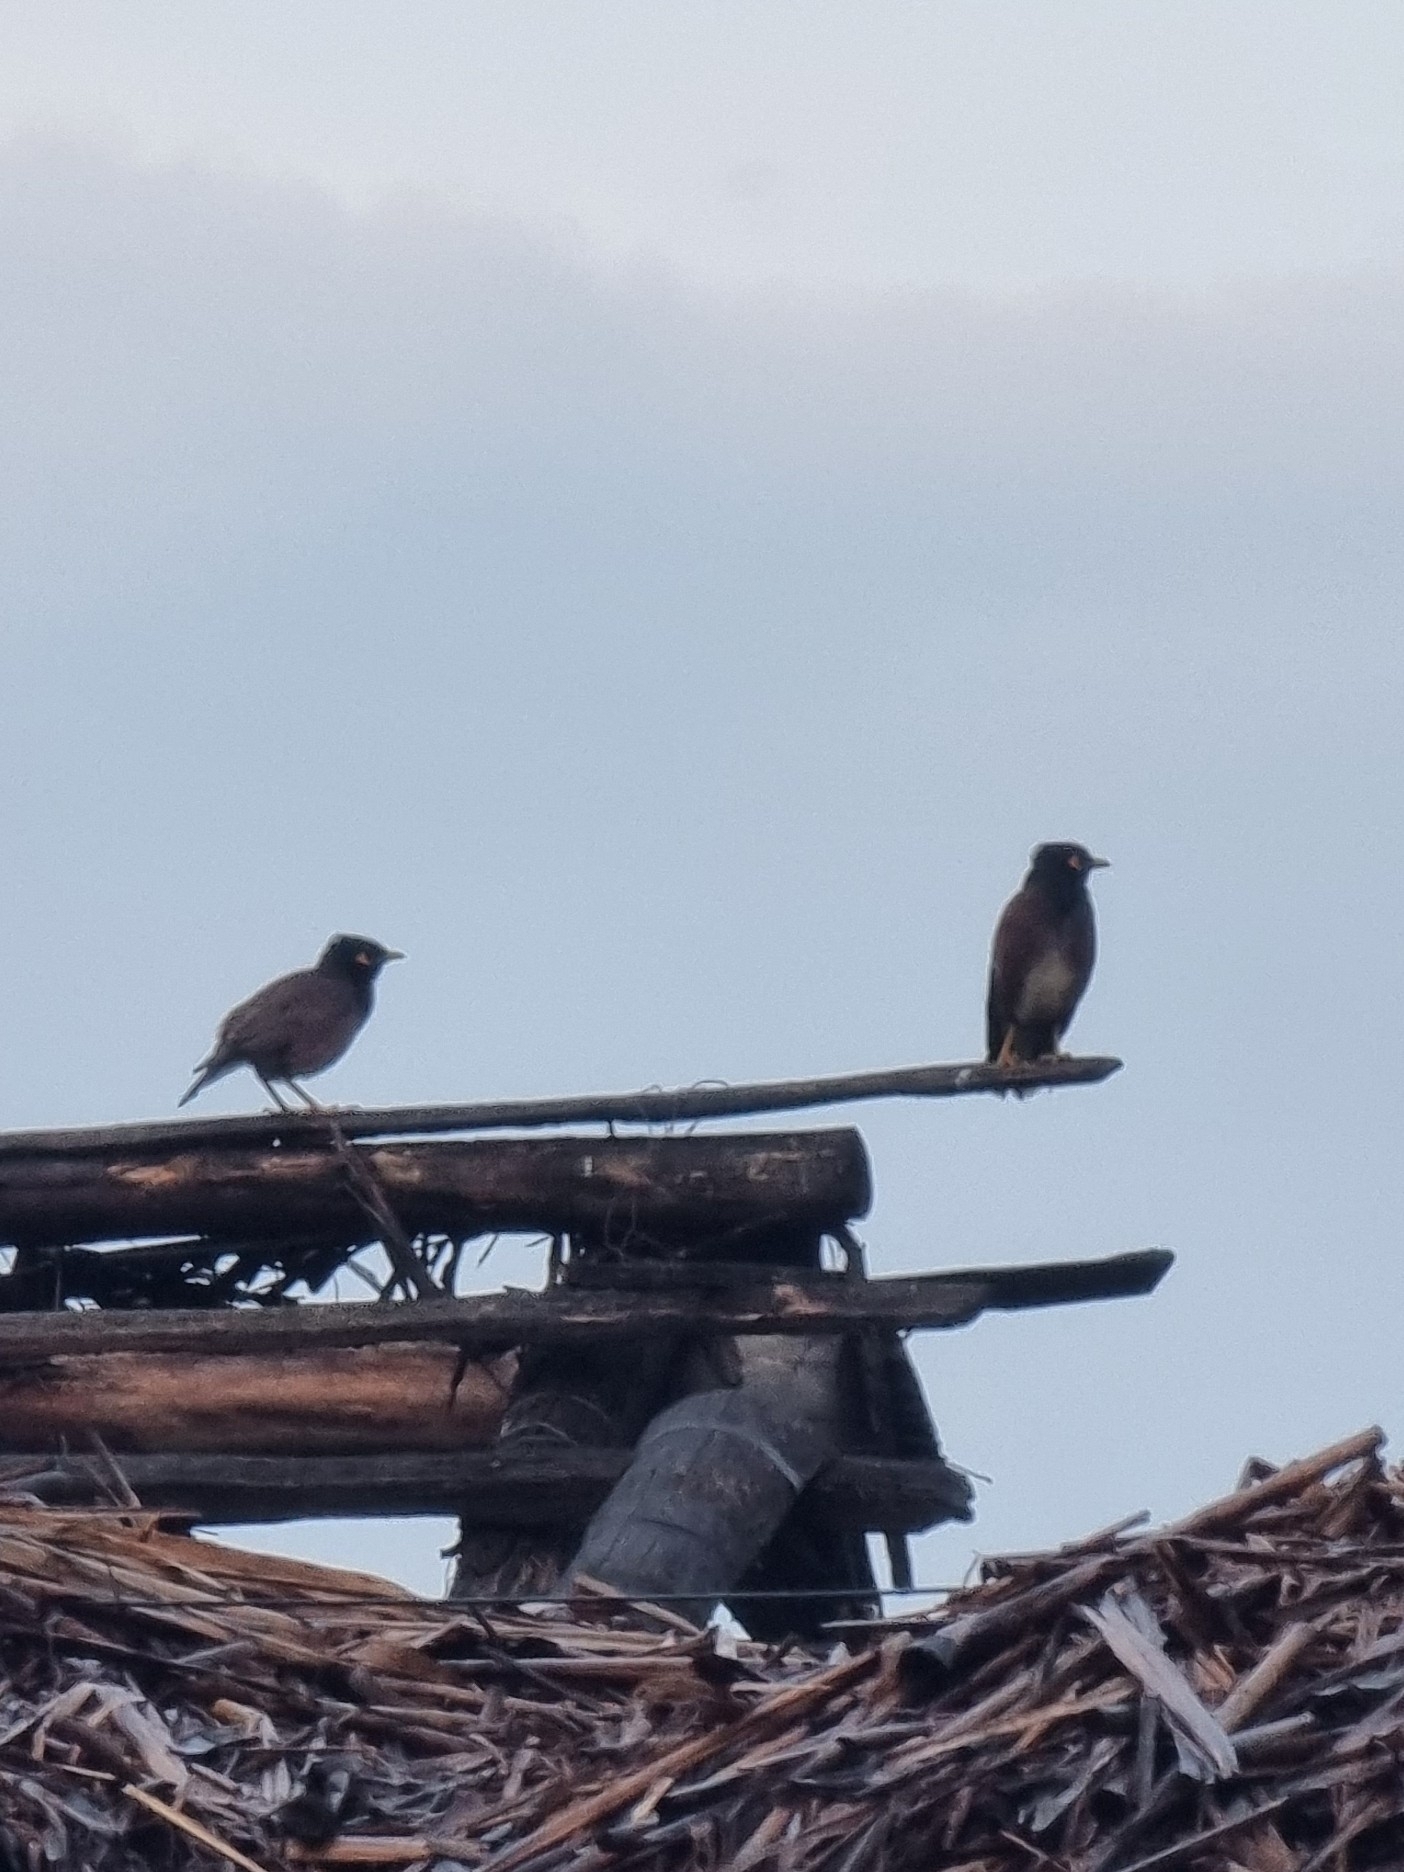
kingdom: Animalia
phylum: Chordata
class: Aves
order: Passeriformes
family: Sturnidae
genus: Acridotheres
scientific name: Acridotheres tristis
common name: Common myna
